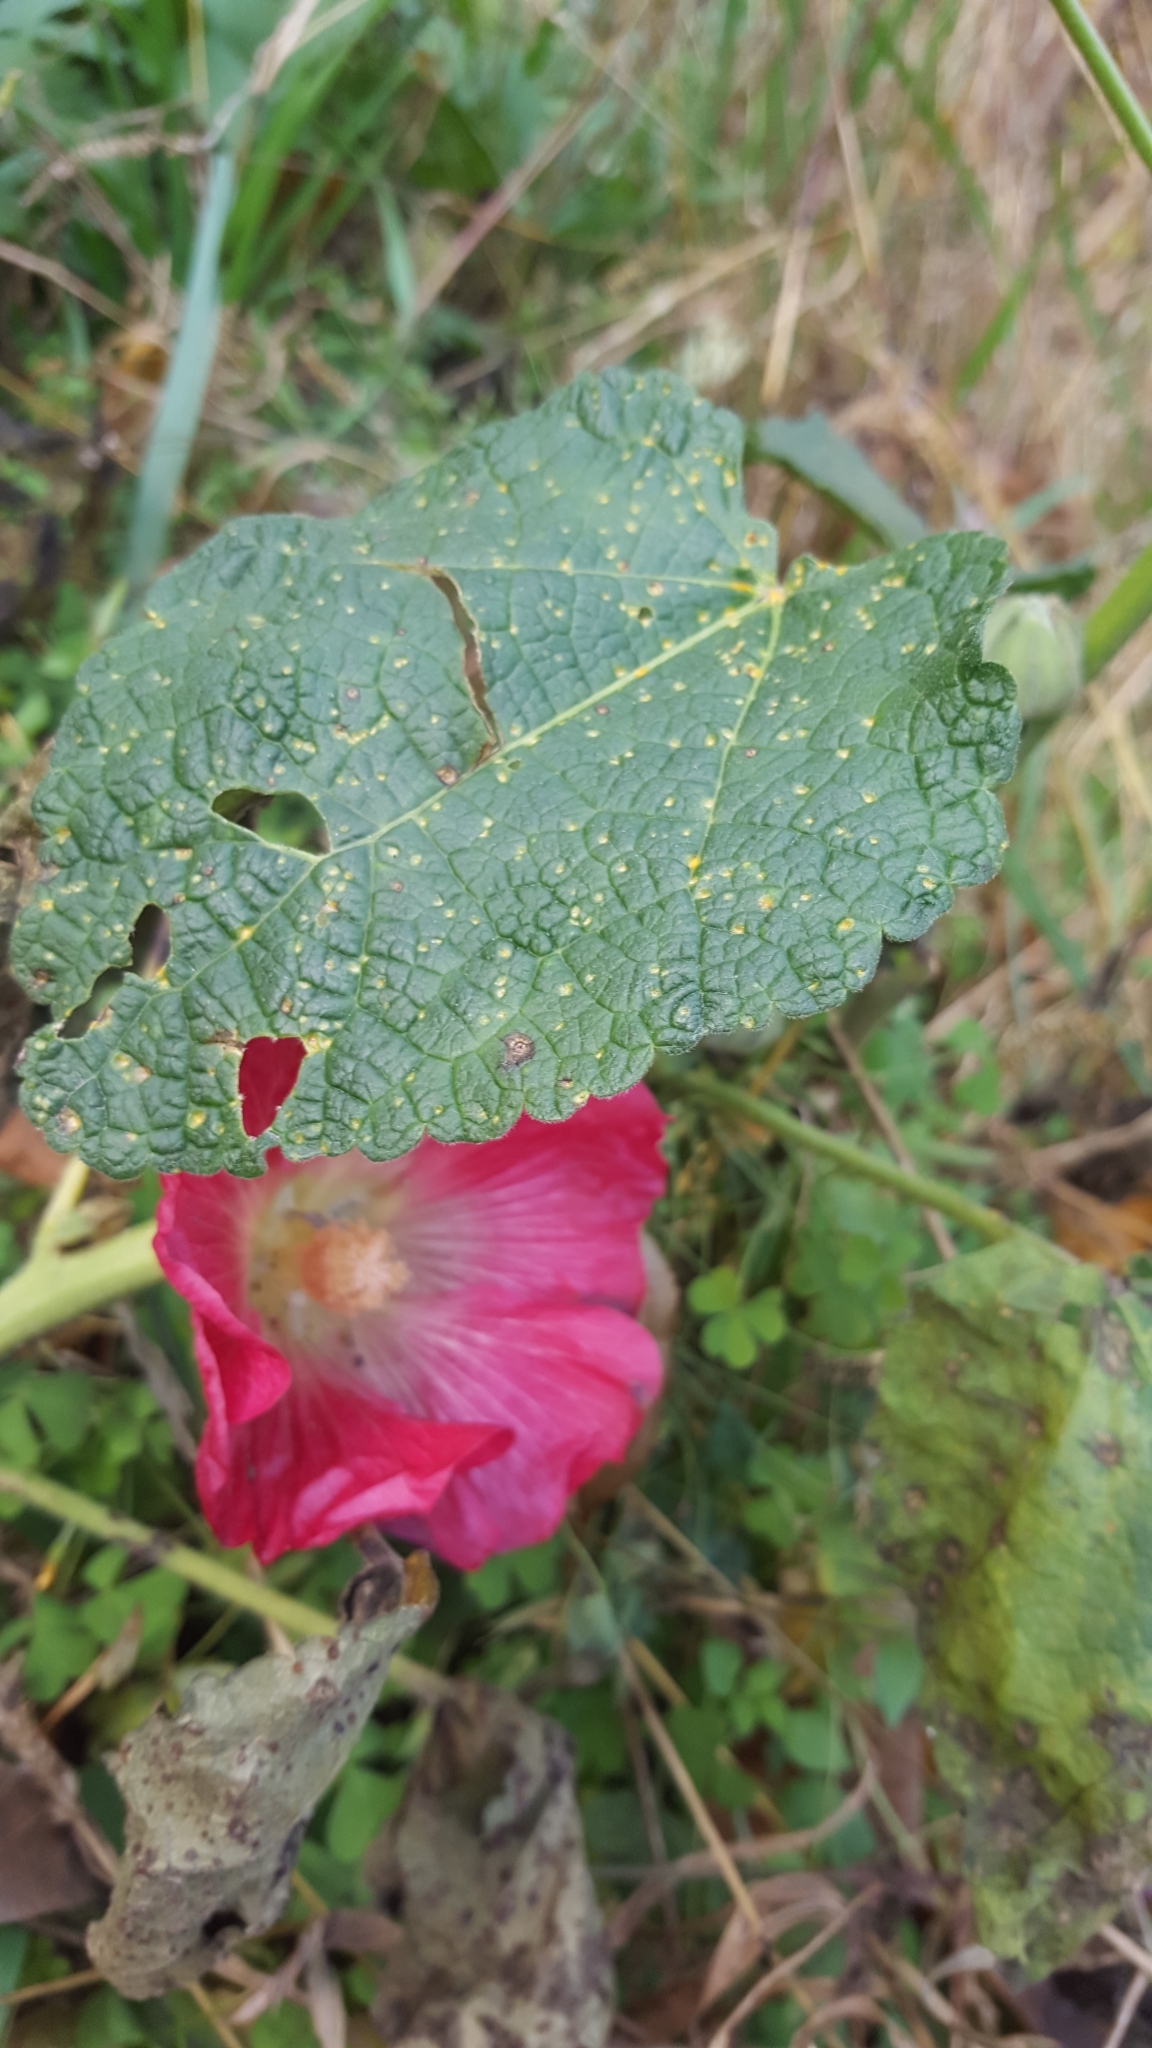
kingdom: Fungi
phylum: Basidiomycota
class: Pucciniomycetes
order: Pucciniales
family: Pucciniaceae
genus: Puccinia
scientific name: Puccinia malvacearum
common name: Hollyhock rust
